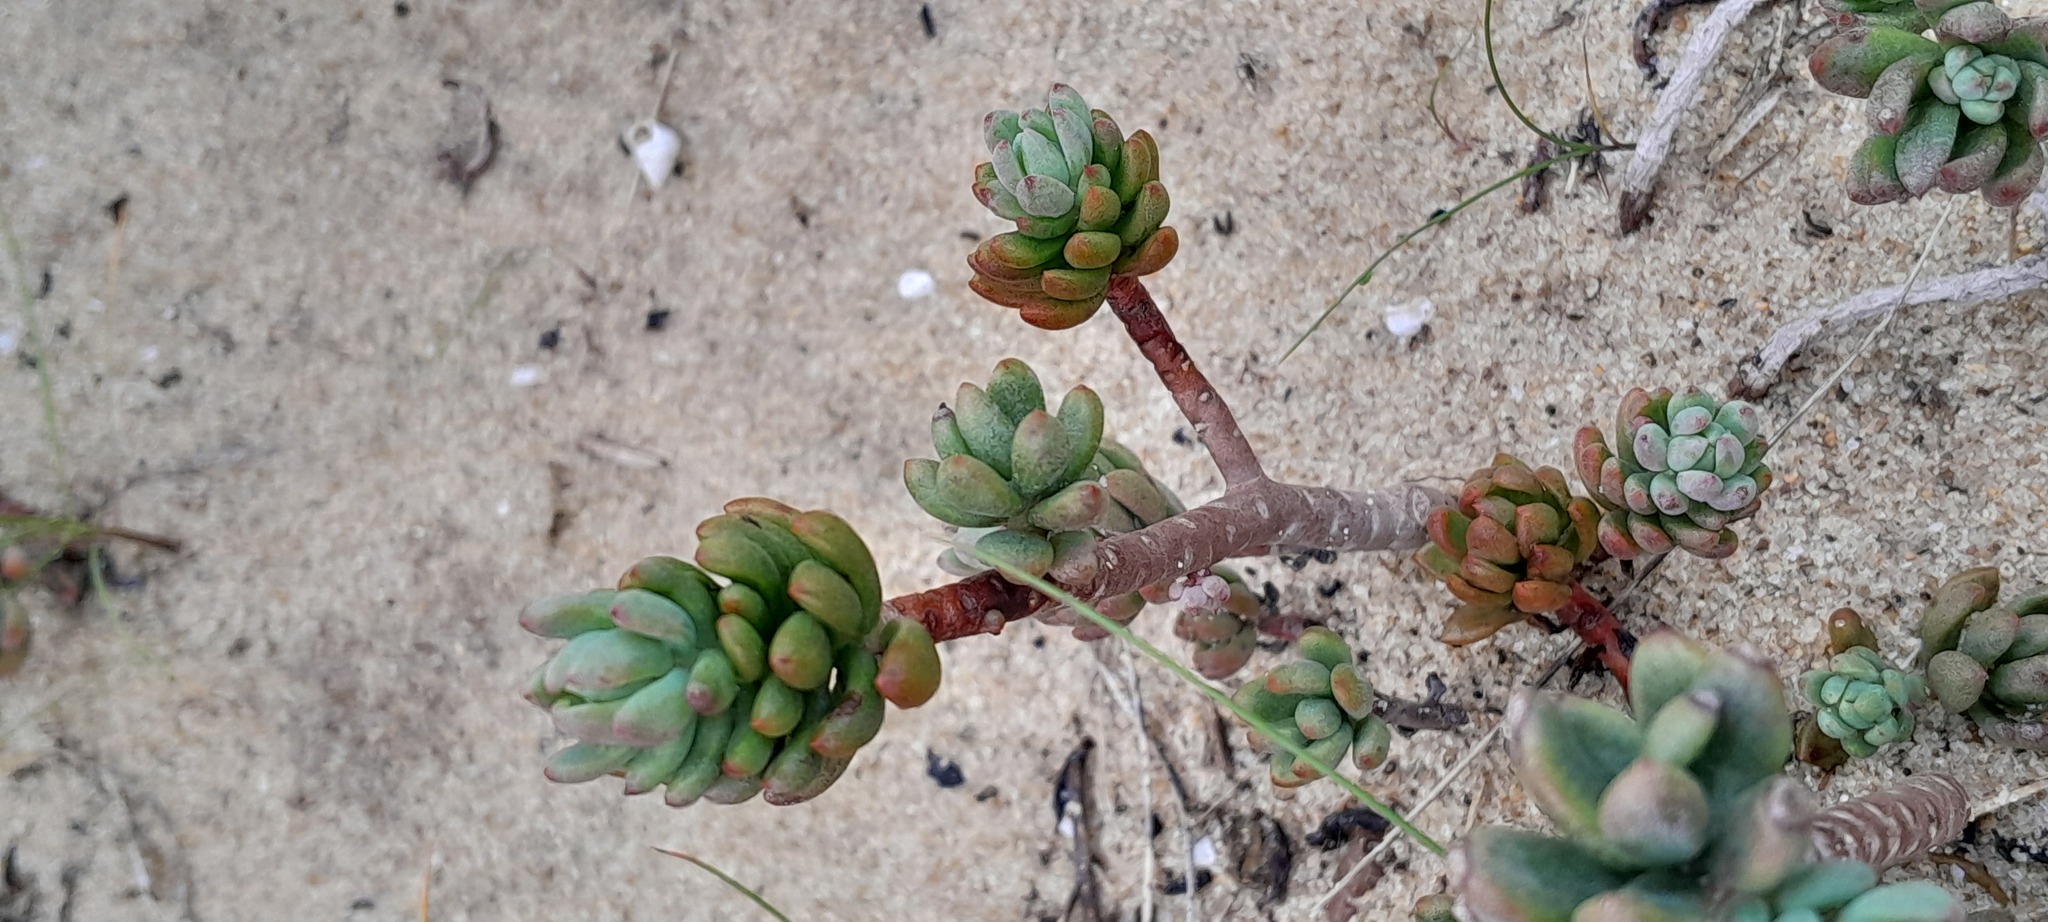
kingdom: Plantae
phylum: Tracheophyta
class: Magnoliopsida
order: Saxifragales
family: Crassulaceae
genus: Petrosedum
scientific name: Petrosedum sediforme
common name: Pale stonecrop
